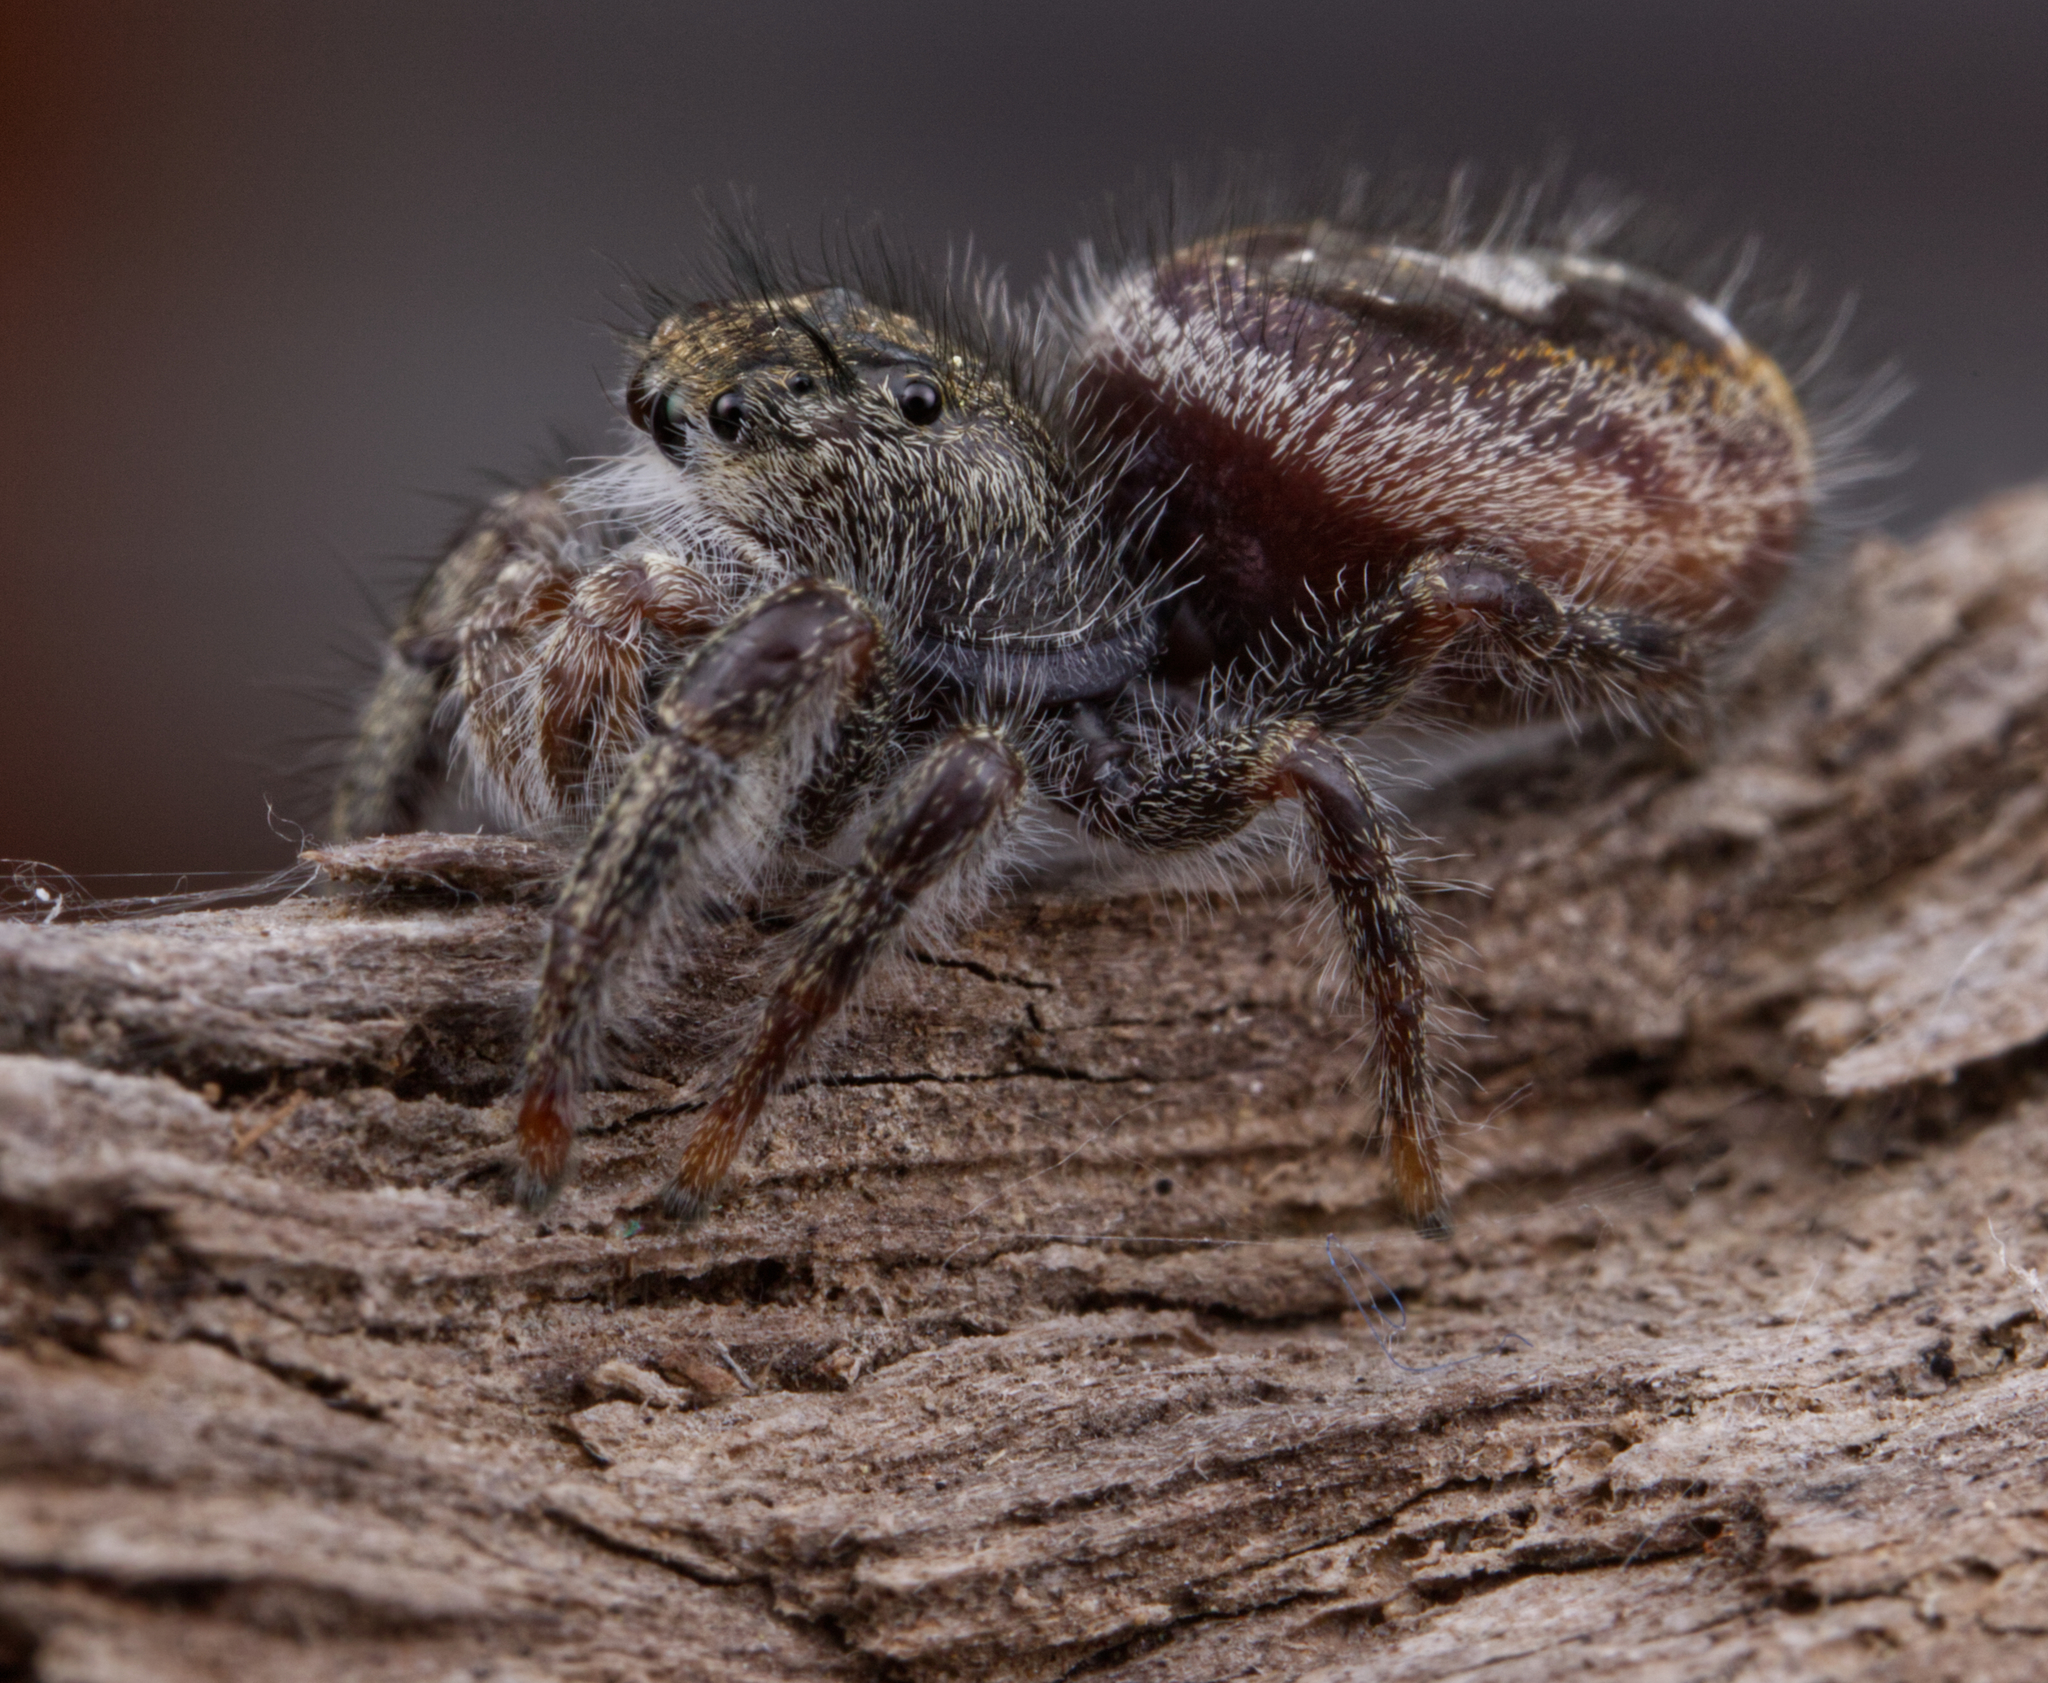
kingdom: Animalia
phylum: Arthropoda
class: Arachnida
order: Araneae
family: Salticidae
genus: Phidippus
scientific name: Phidippus insignarius
